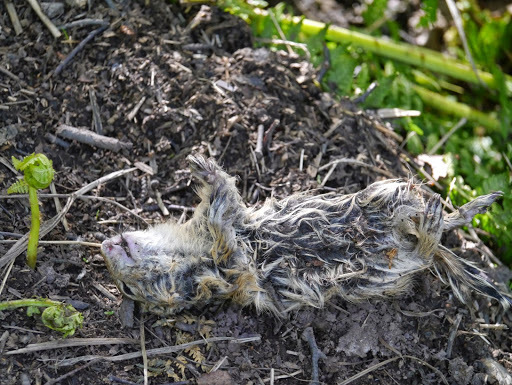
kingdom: Animalia
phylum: Chordata
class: Mammalia
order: Rodentia
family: Sciuridae
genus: Urocitellus
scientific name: Urocitellus parryii
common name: Arctic ground squirrel
